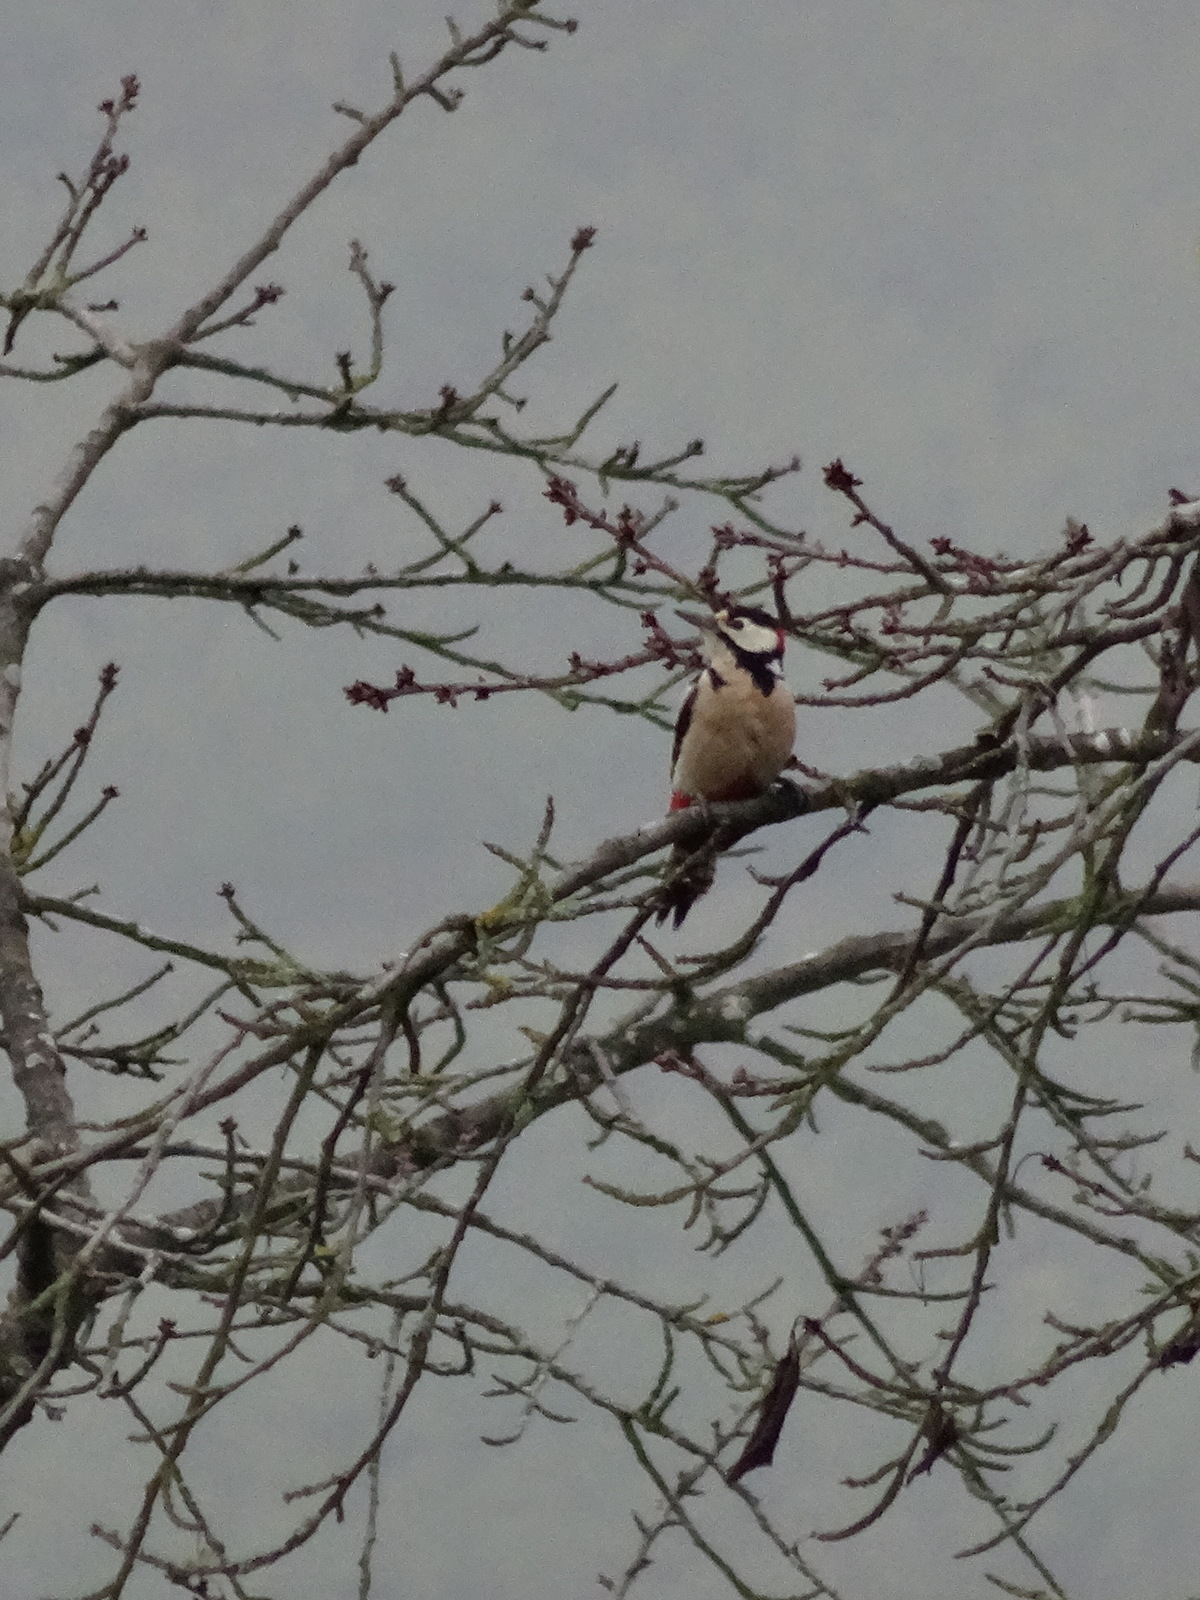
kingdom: Animalia
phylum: Chordata
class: Aves
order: Piciformes
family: Picidae
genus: Dendrocopos
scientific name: Dendrocopos major
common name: Great spotted woodpecker
